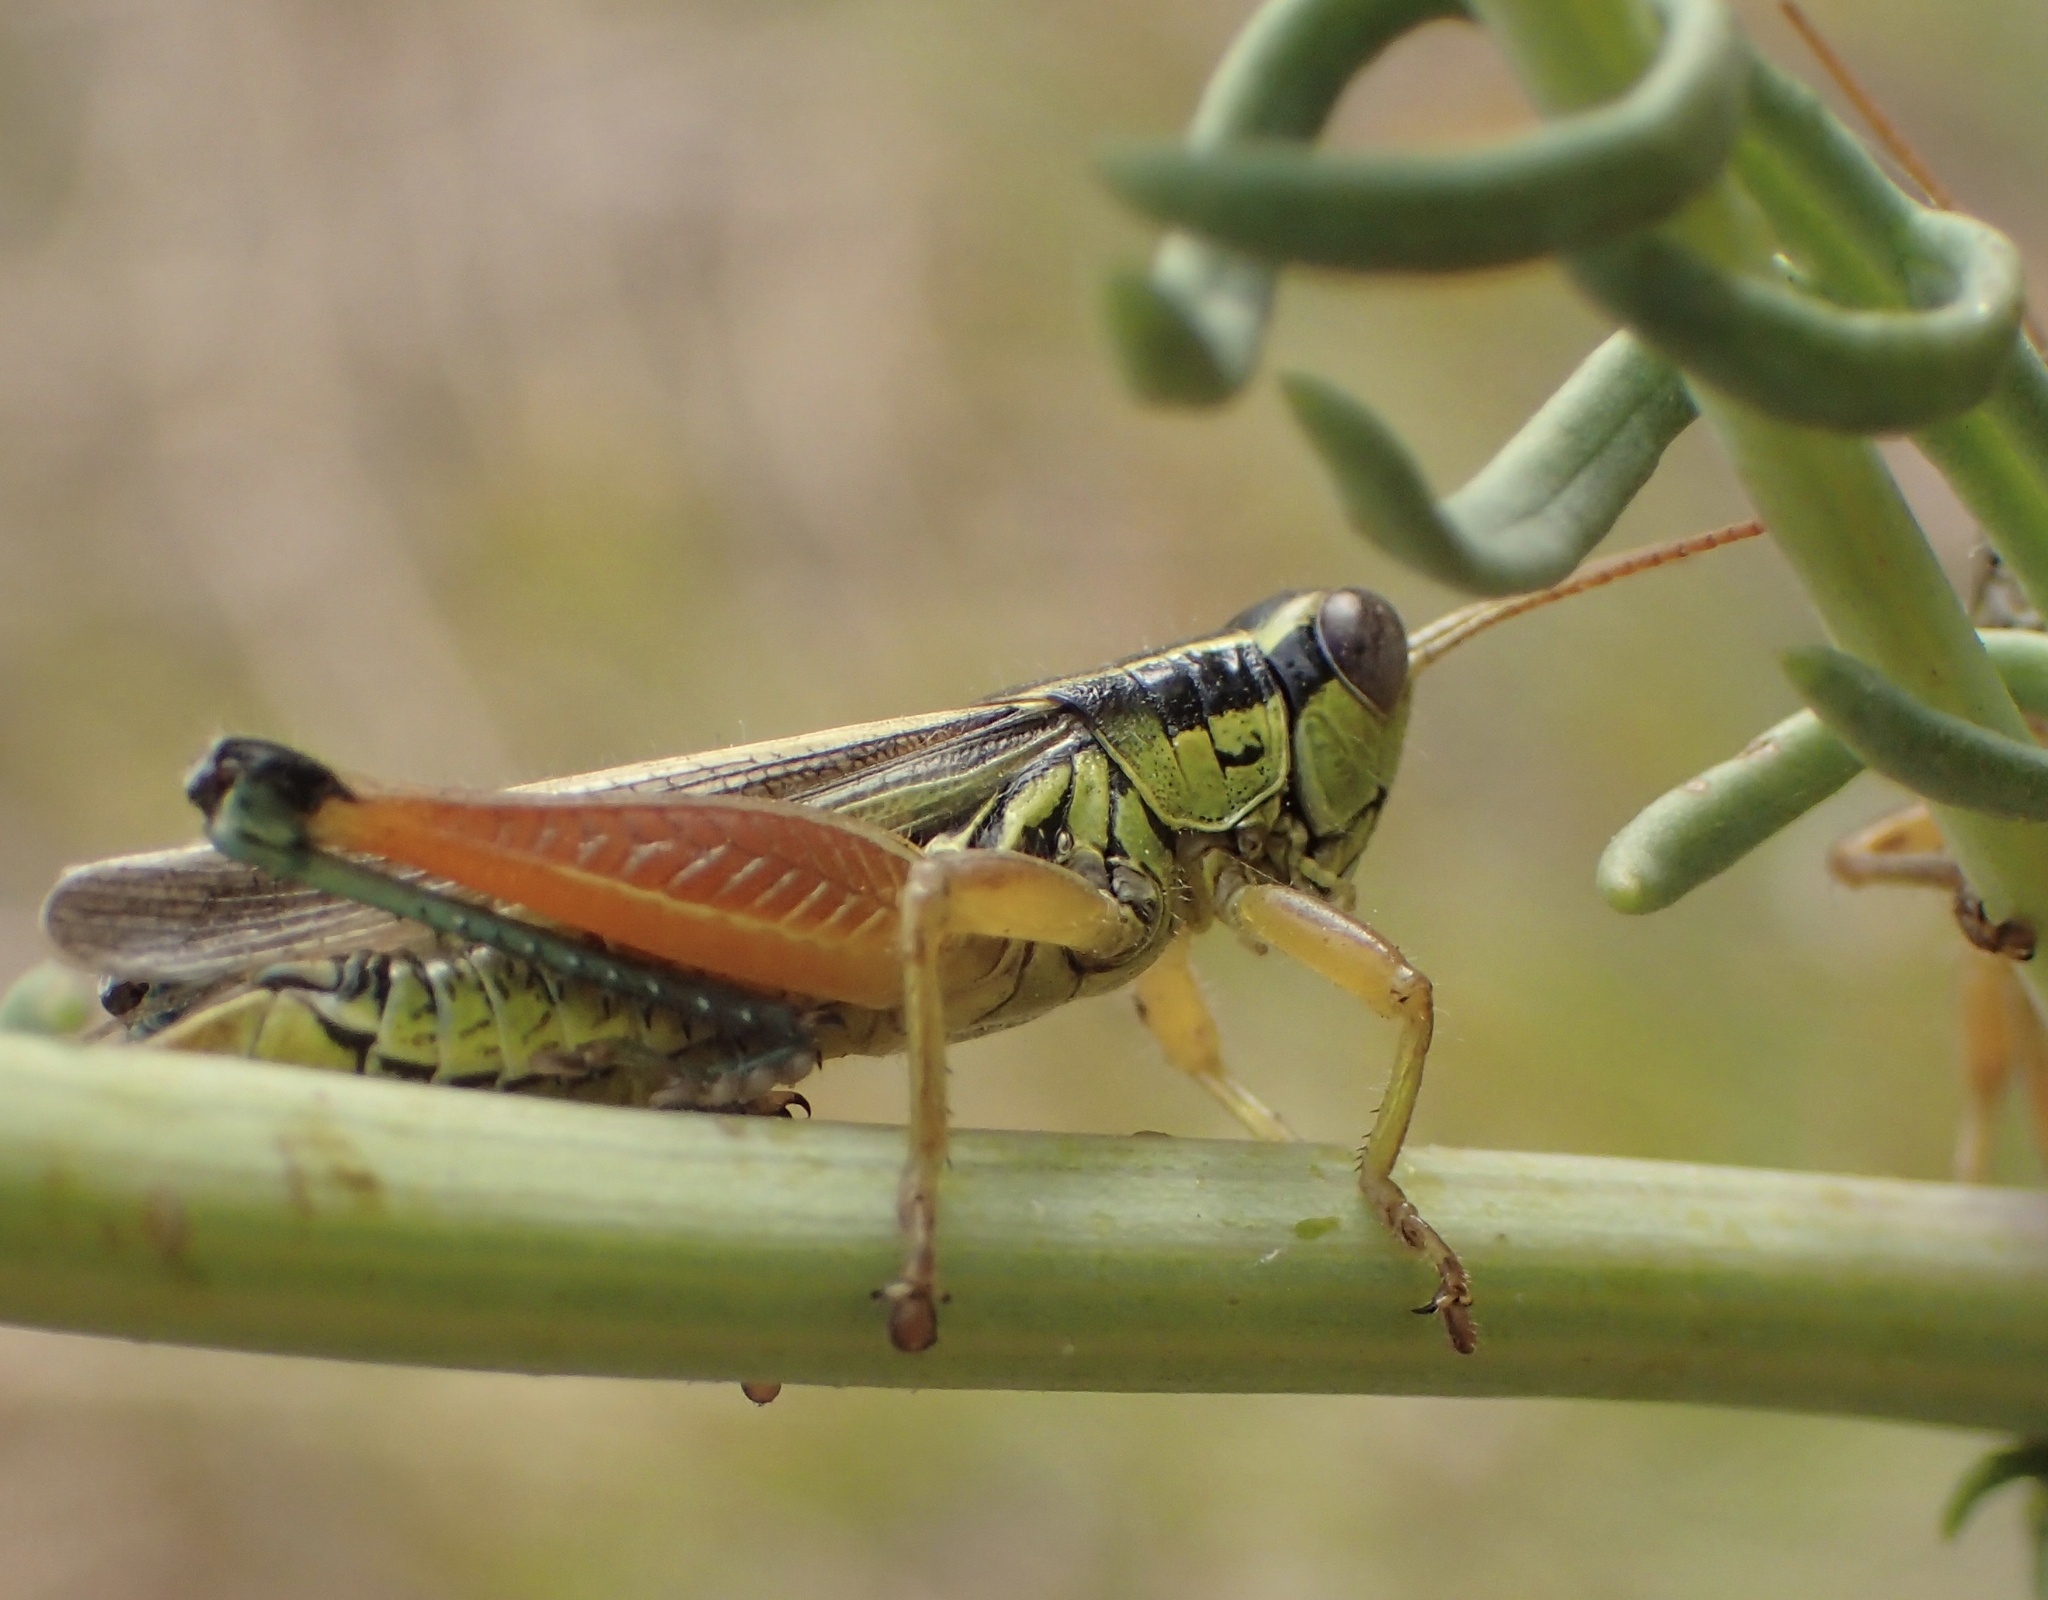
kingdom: Animalia
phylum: Arthropoda
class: Insecta
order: Orthoptera
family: Acrididae
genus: Dichroplus
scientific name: Dichroplus vittiger
